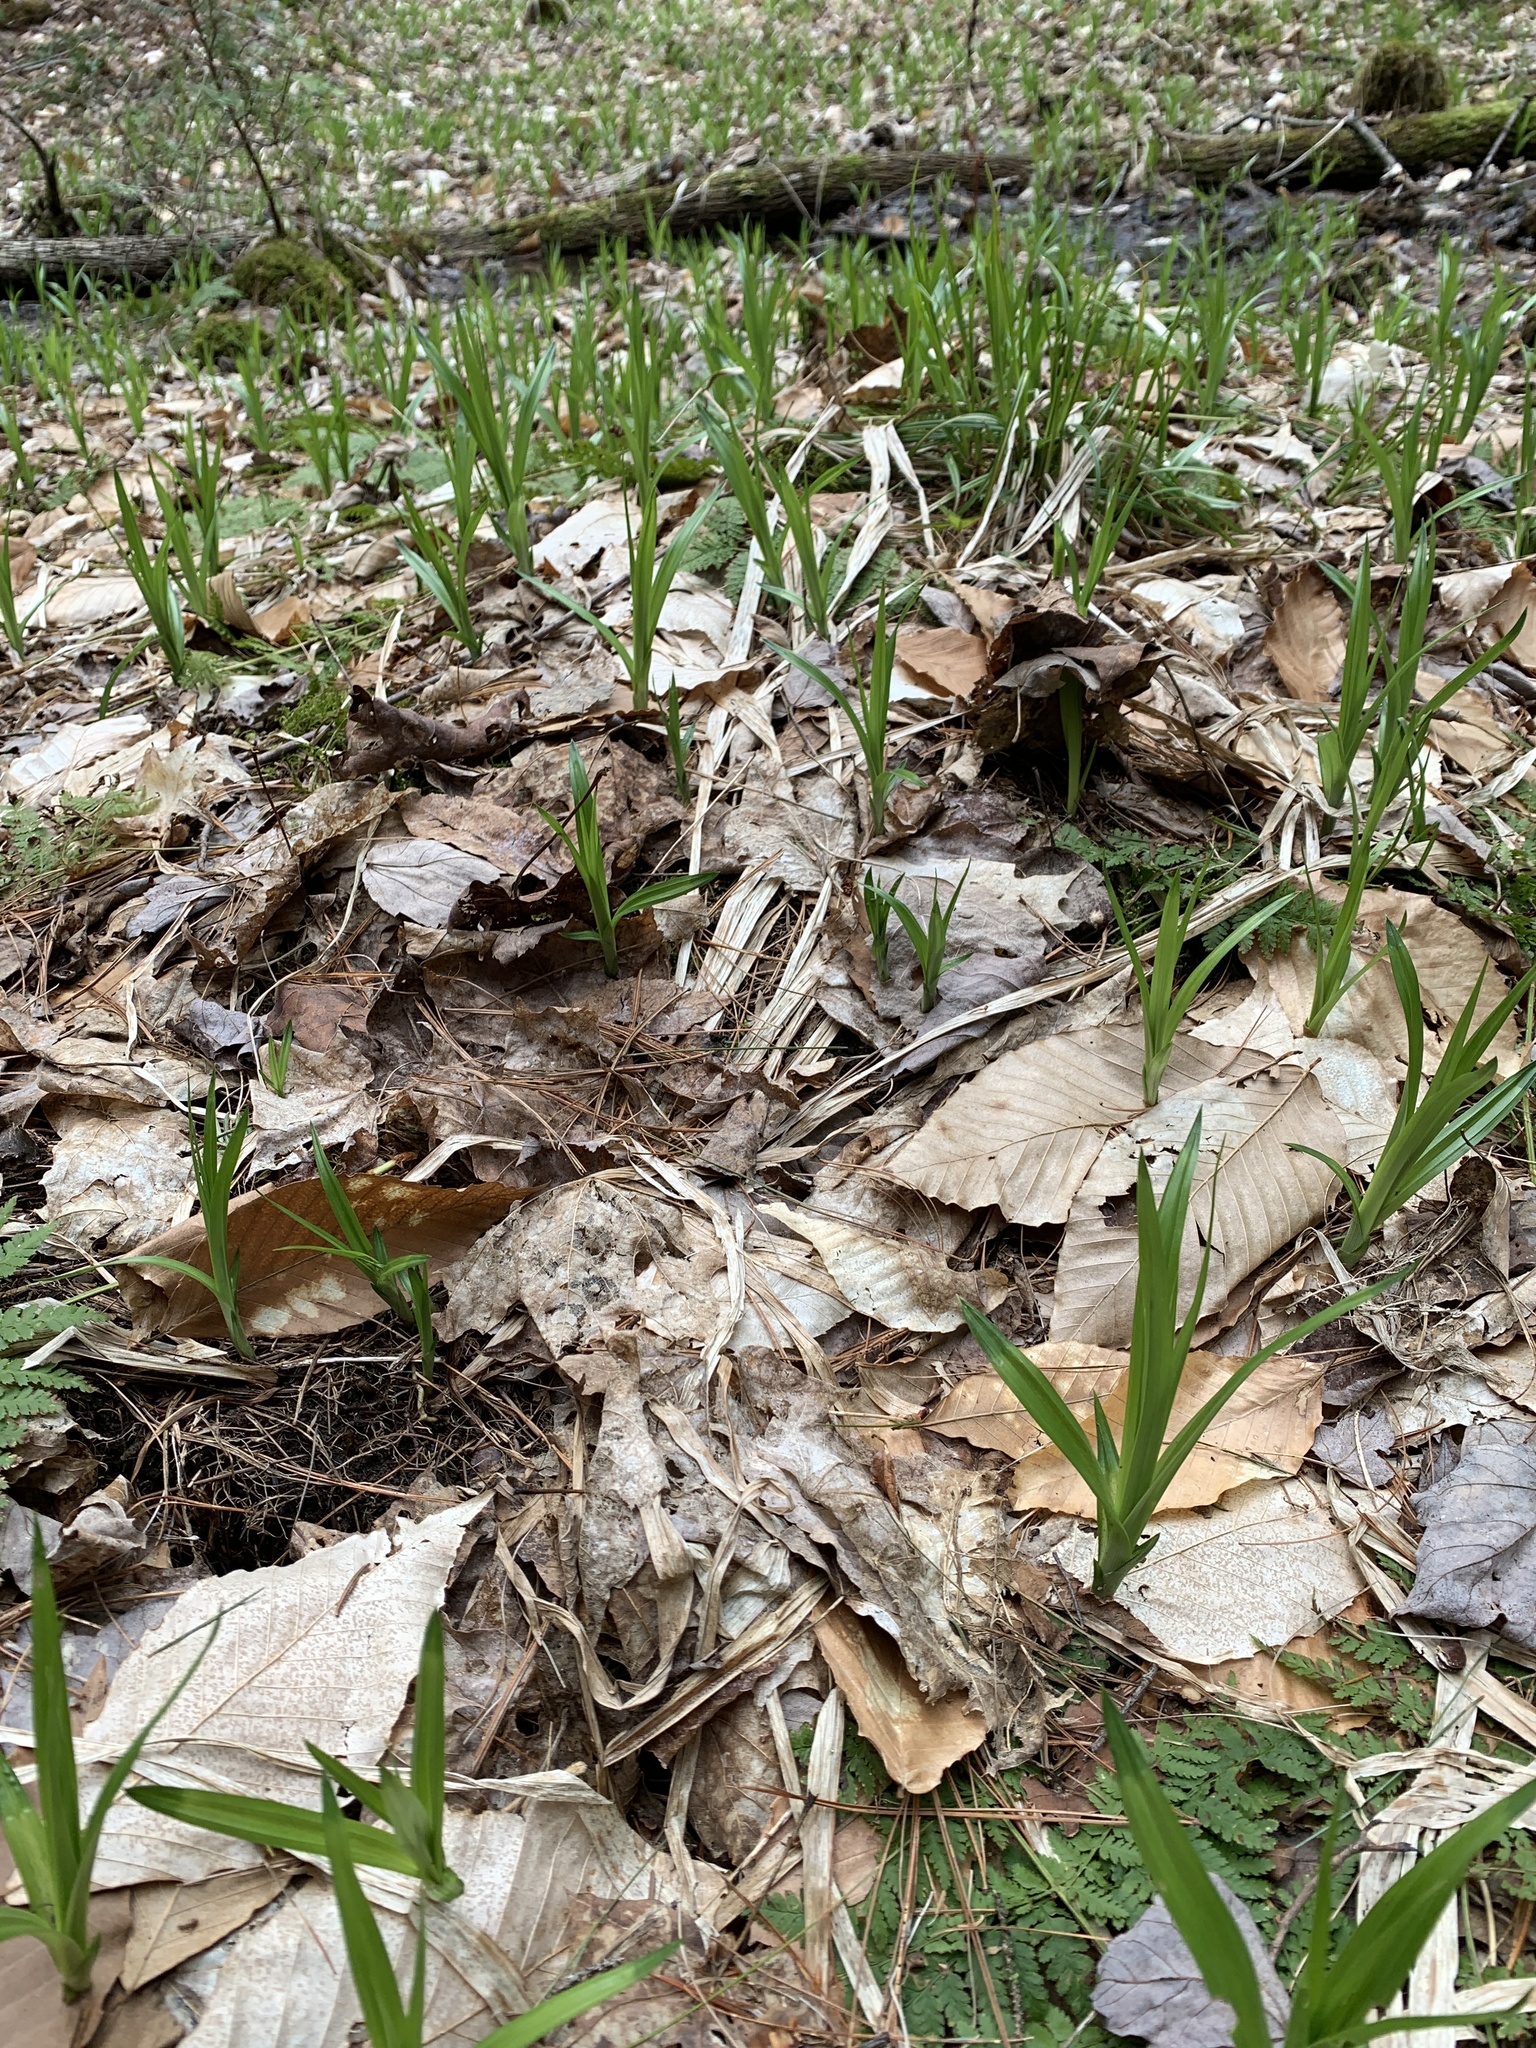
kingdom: Plantae
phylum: Tracheophyta
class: Liliopsida
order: Poales
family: Cyperaceae
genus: Carex
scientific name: Carex scabrata
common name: Eastern rough sedge
